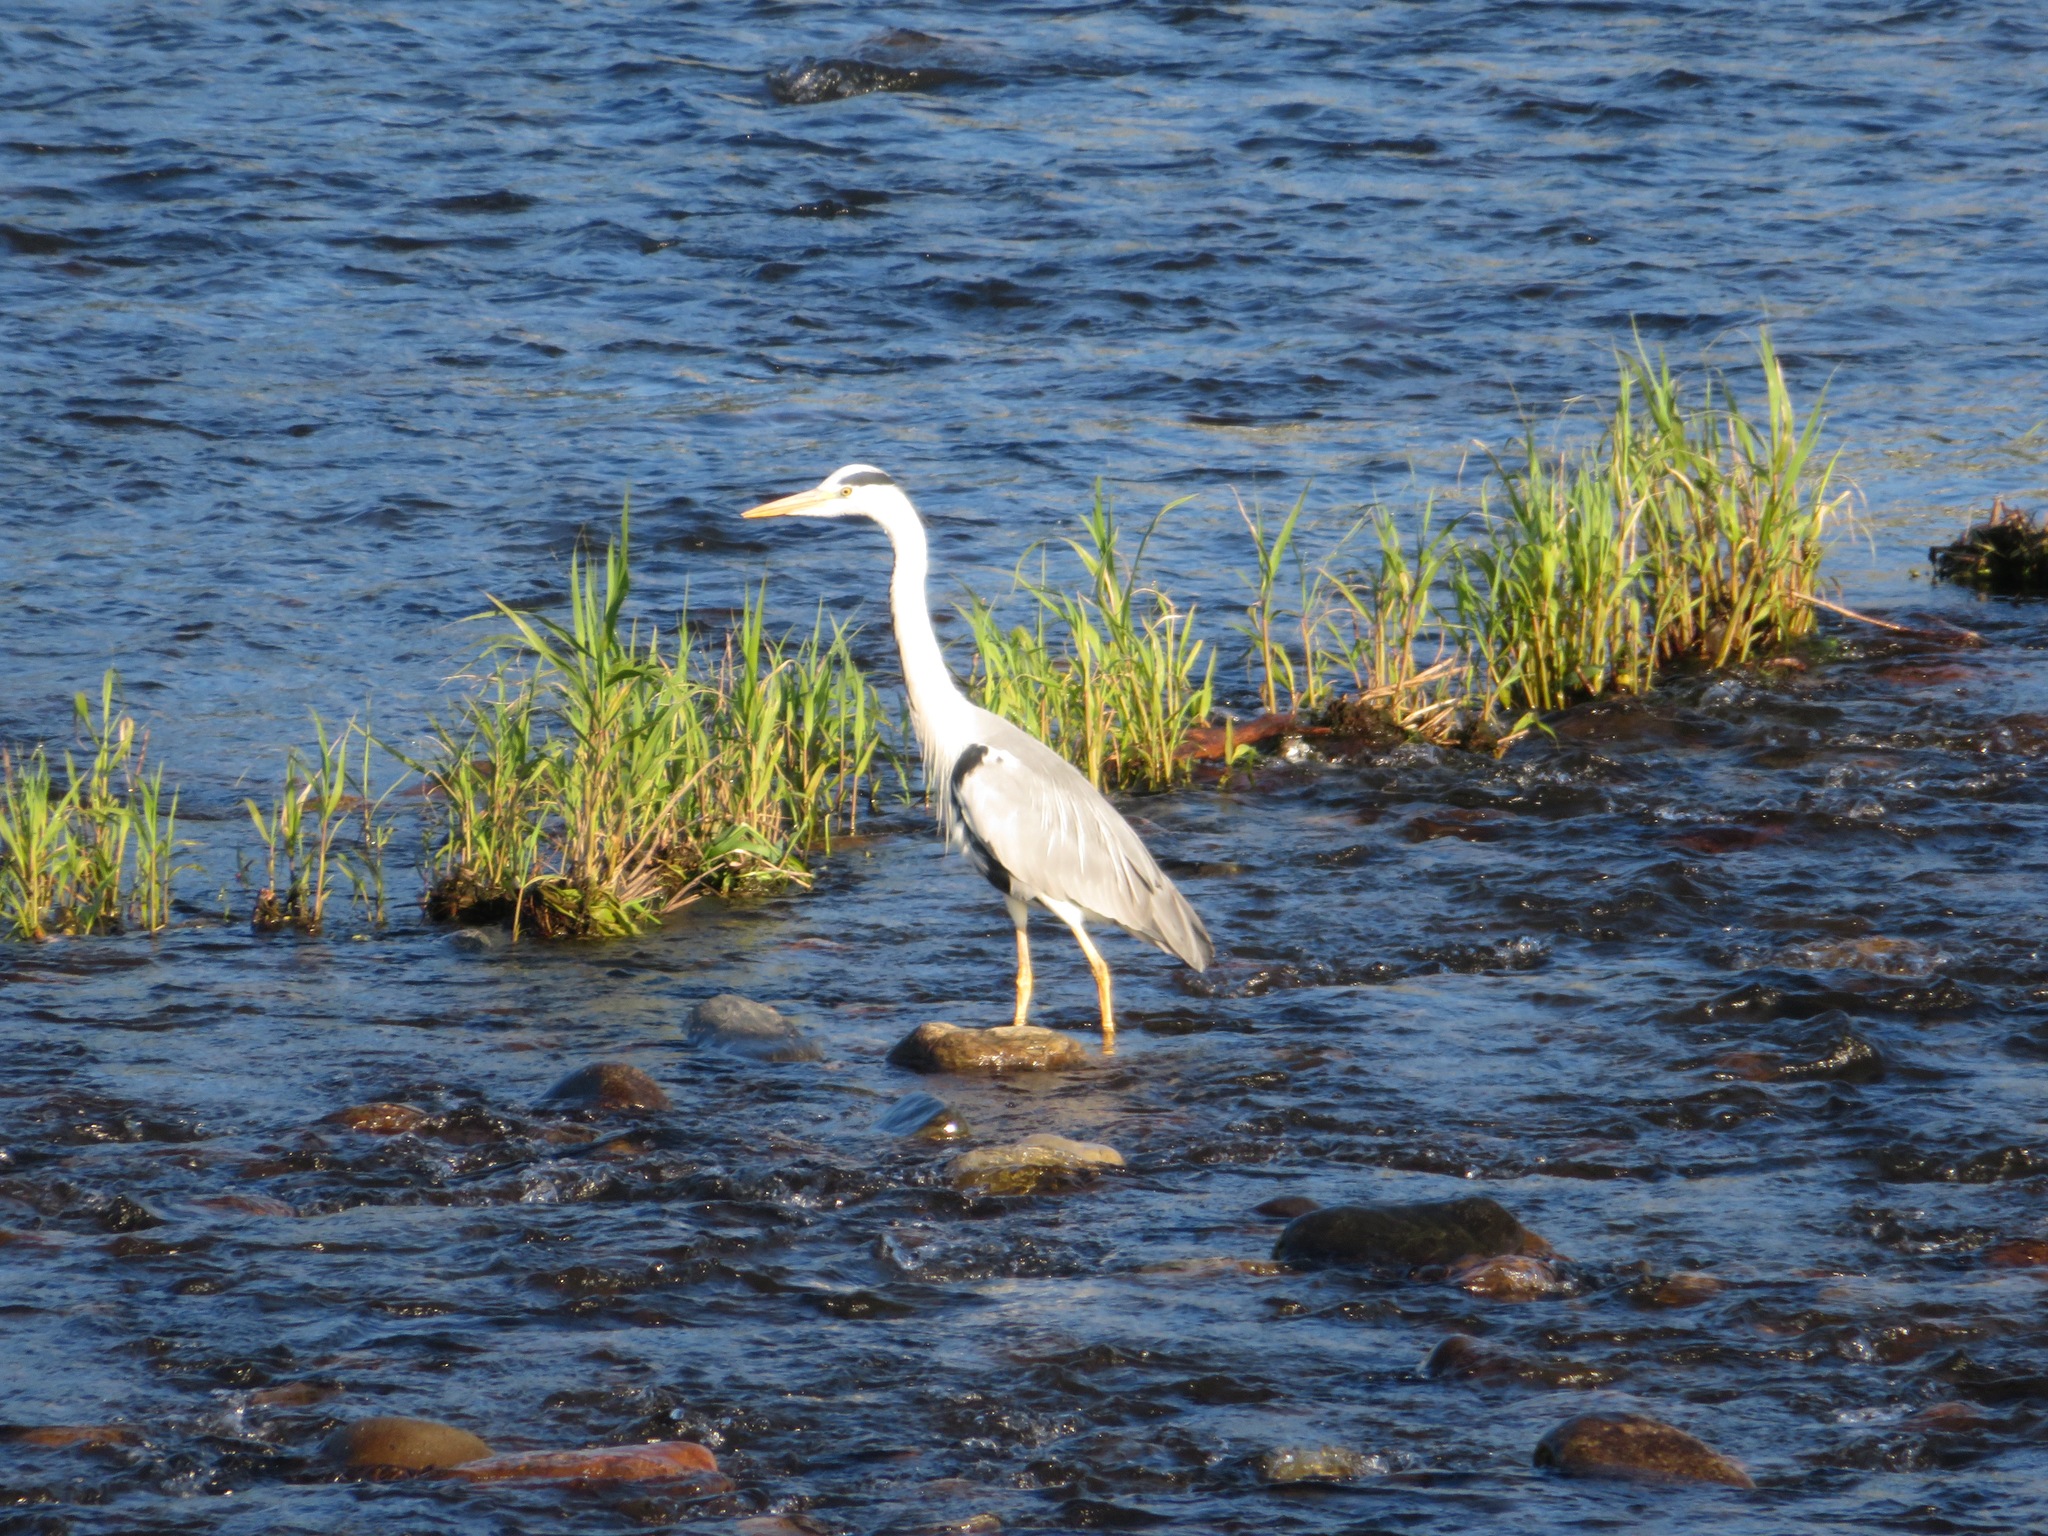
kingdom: Animalia
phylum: Chordata
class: Aves
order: Pelecaniformes
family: Ardeidae
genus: Ardea
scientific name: Ardea cinerea
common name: Grey heron
